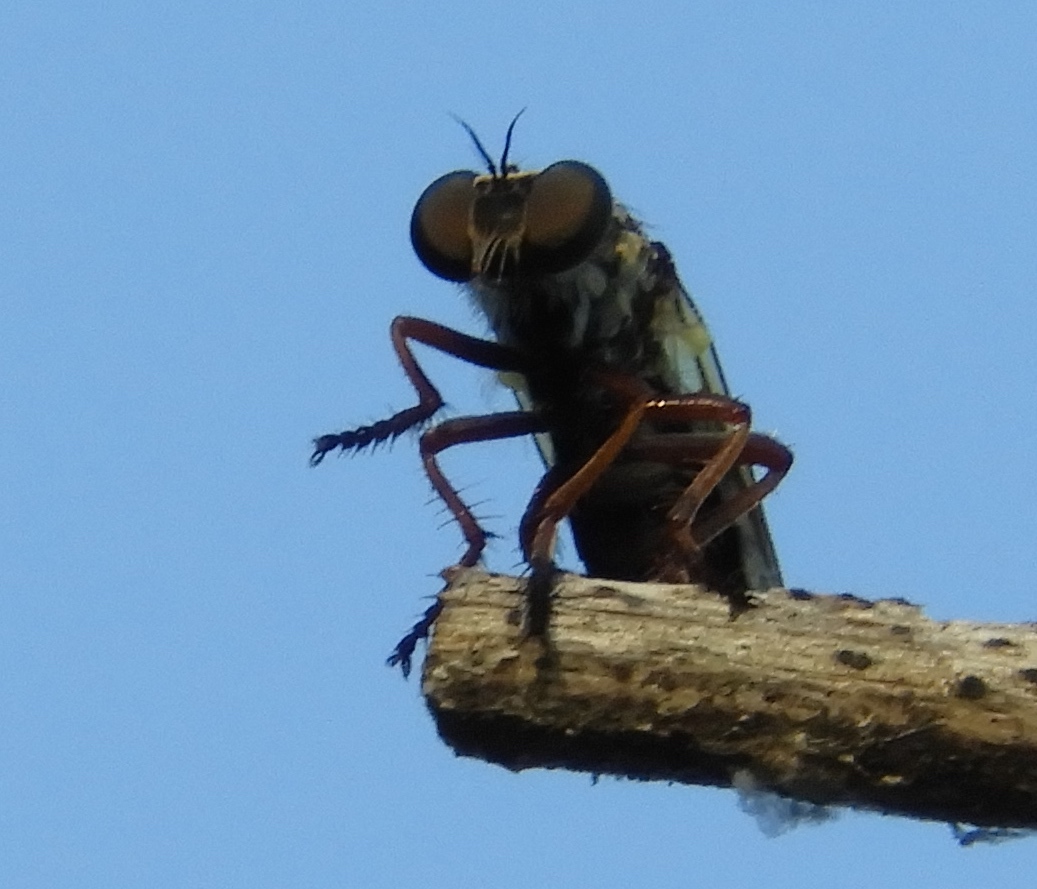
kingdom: Animalia
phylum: Arthropoda
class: Insecta
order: Diptera
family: Asilidae
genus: Heteropogon
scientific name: Heteropogon
